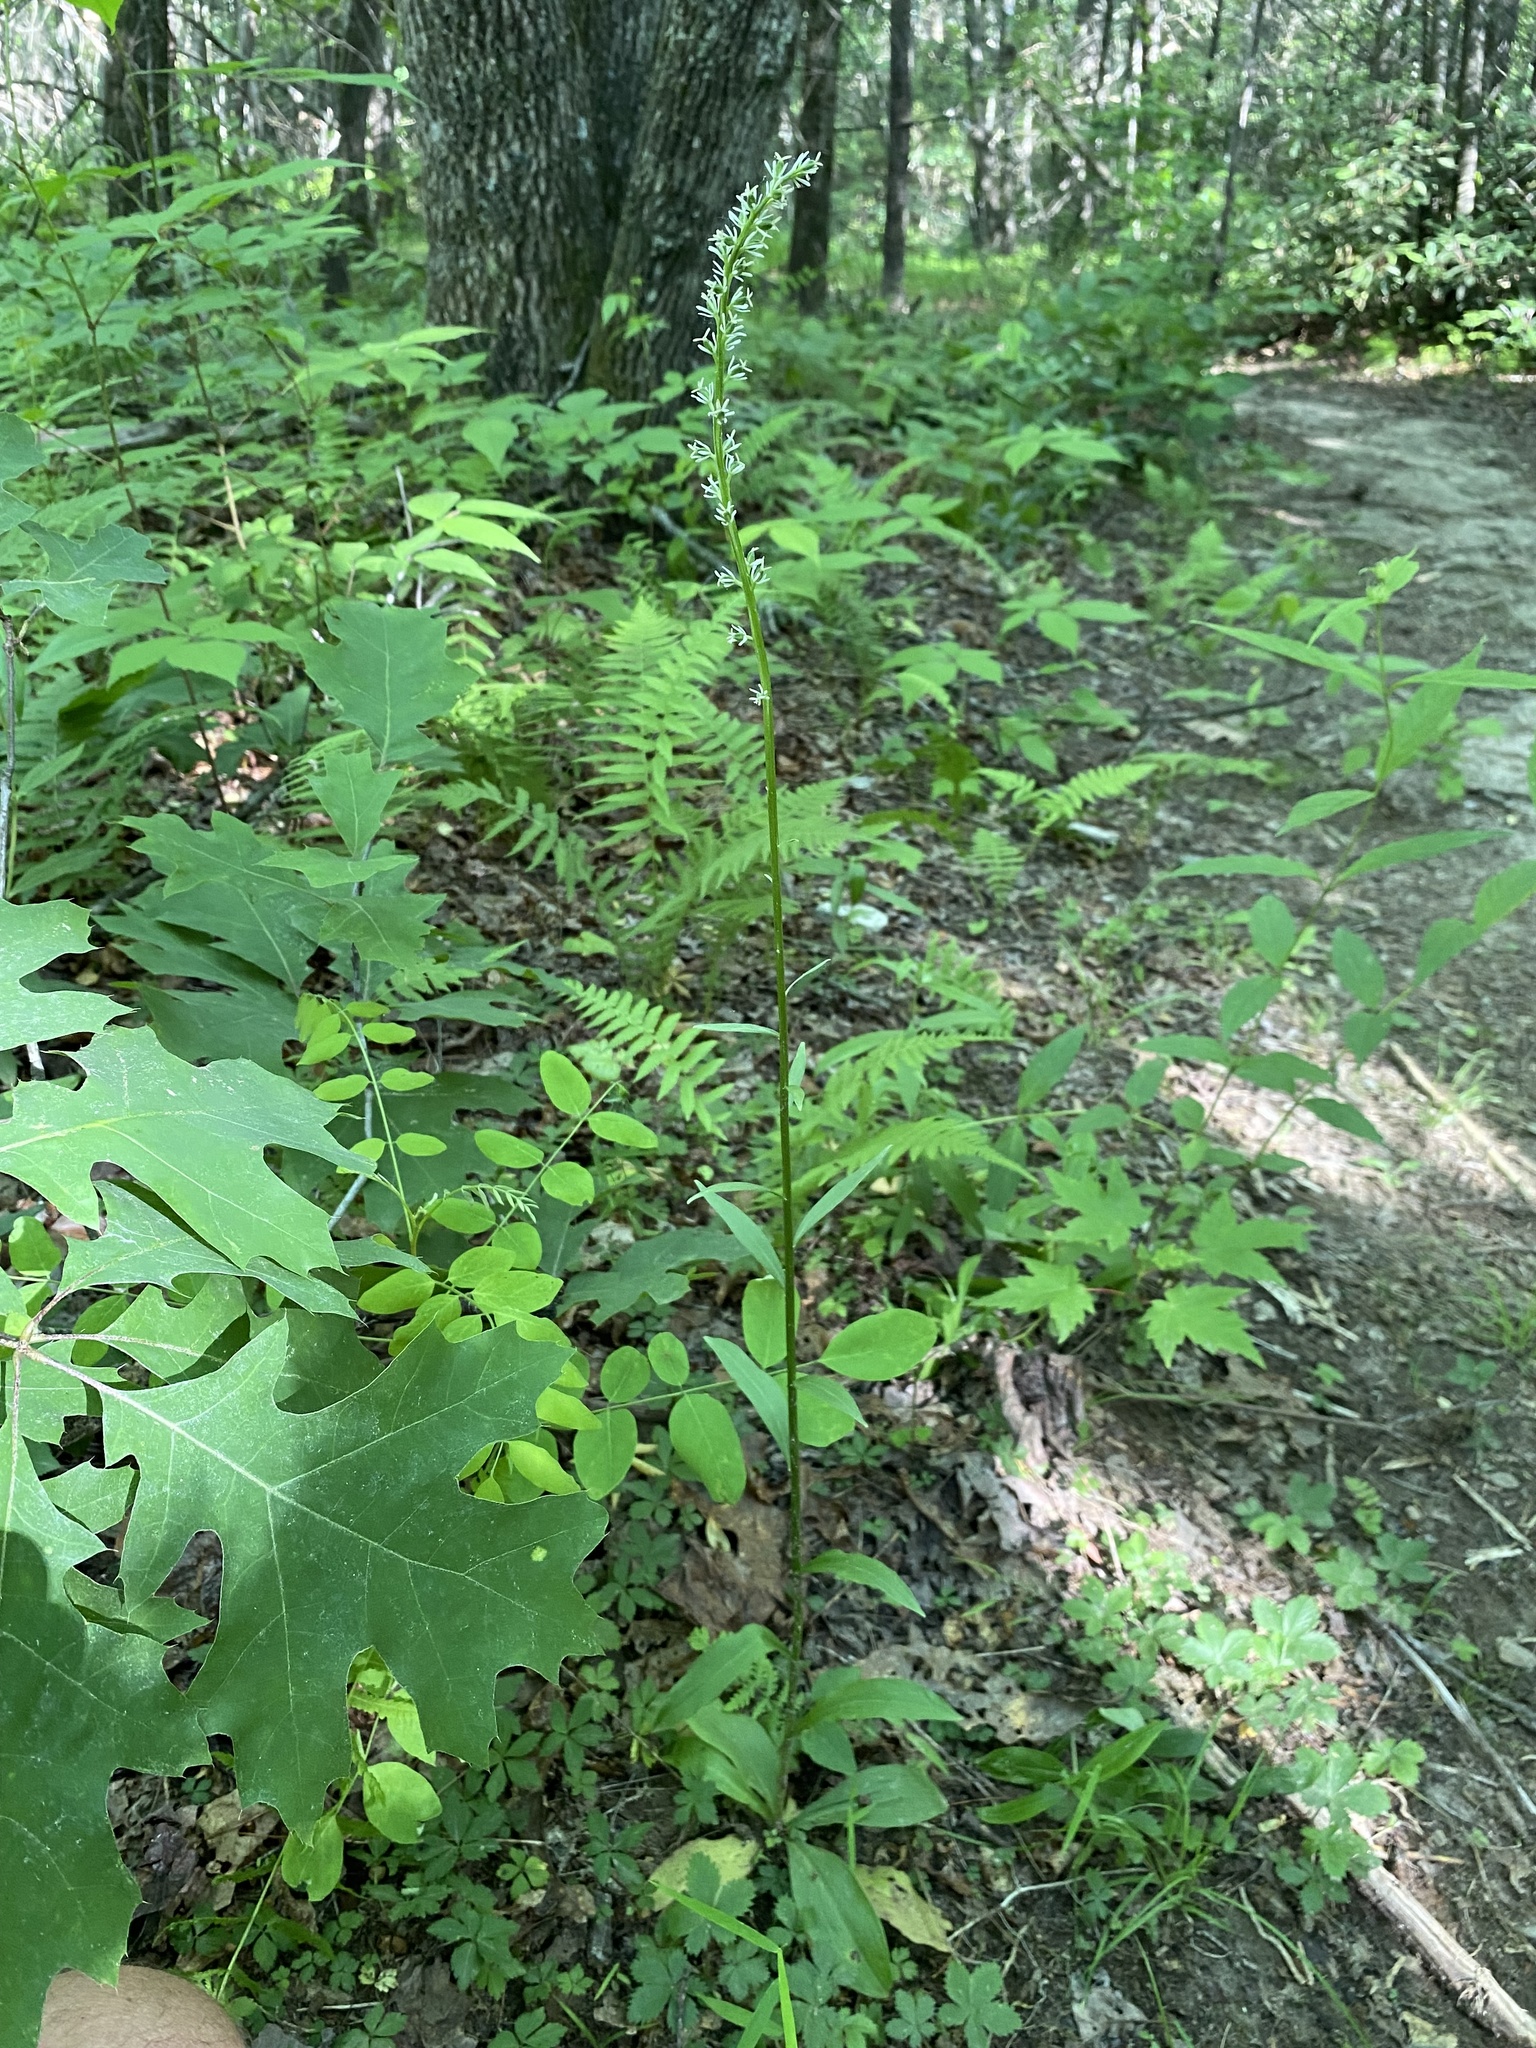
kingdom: Plantae
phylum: Tracheophyta
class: Liliopsida
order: Liliales
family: Melanthiaceae
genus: Chamaelirium
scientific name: Chamaelirium luteum
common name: Fairy-wand
